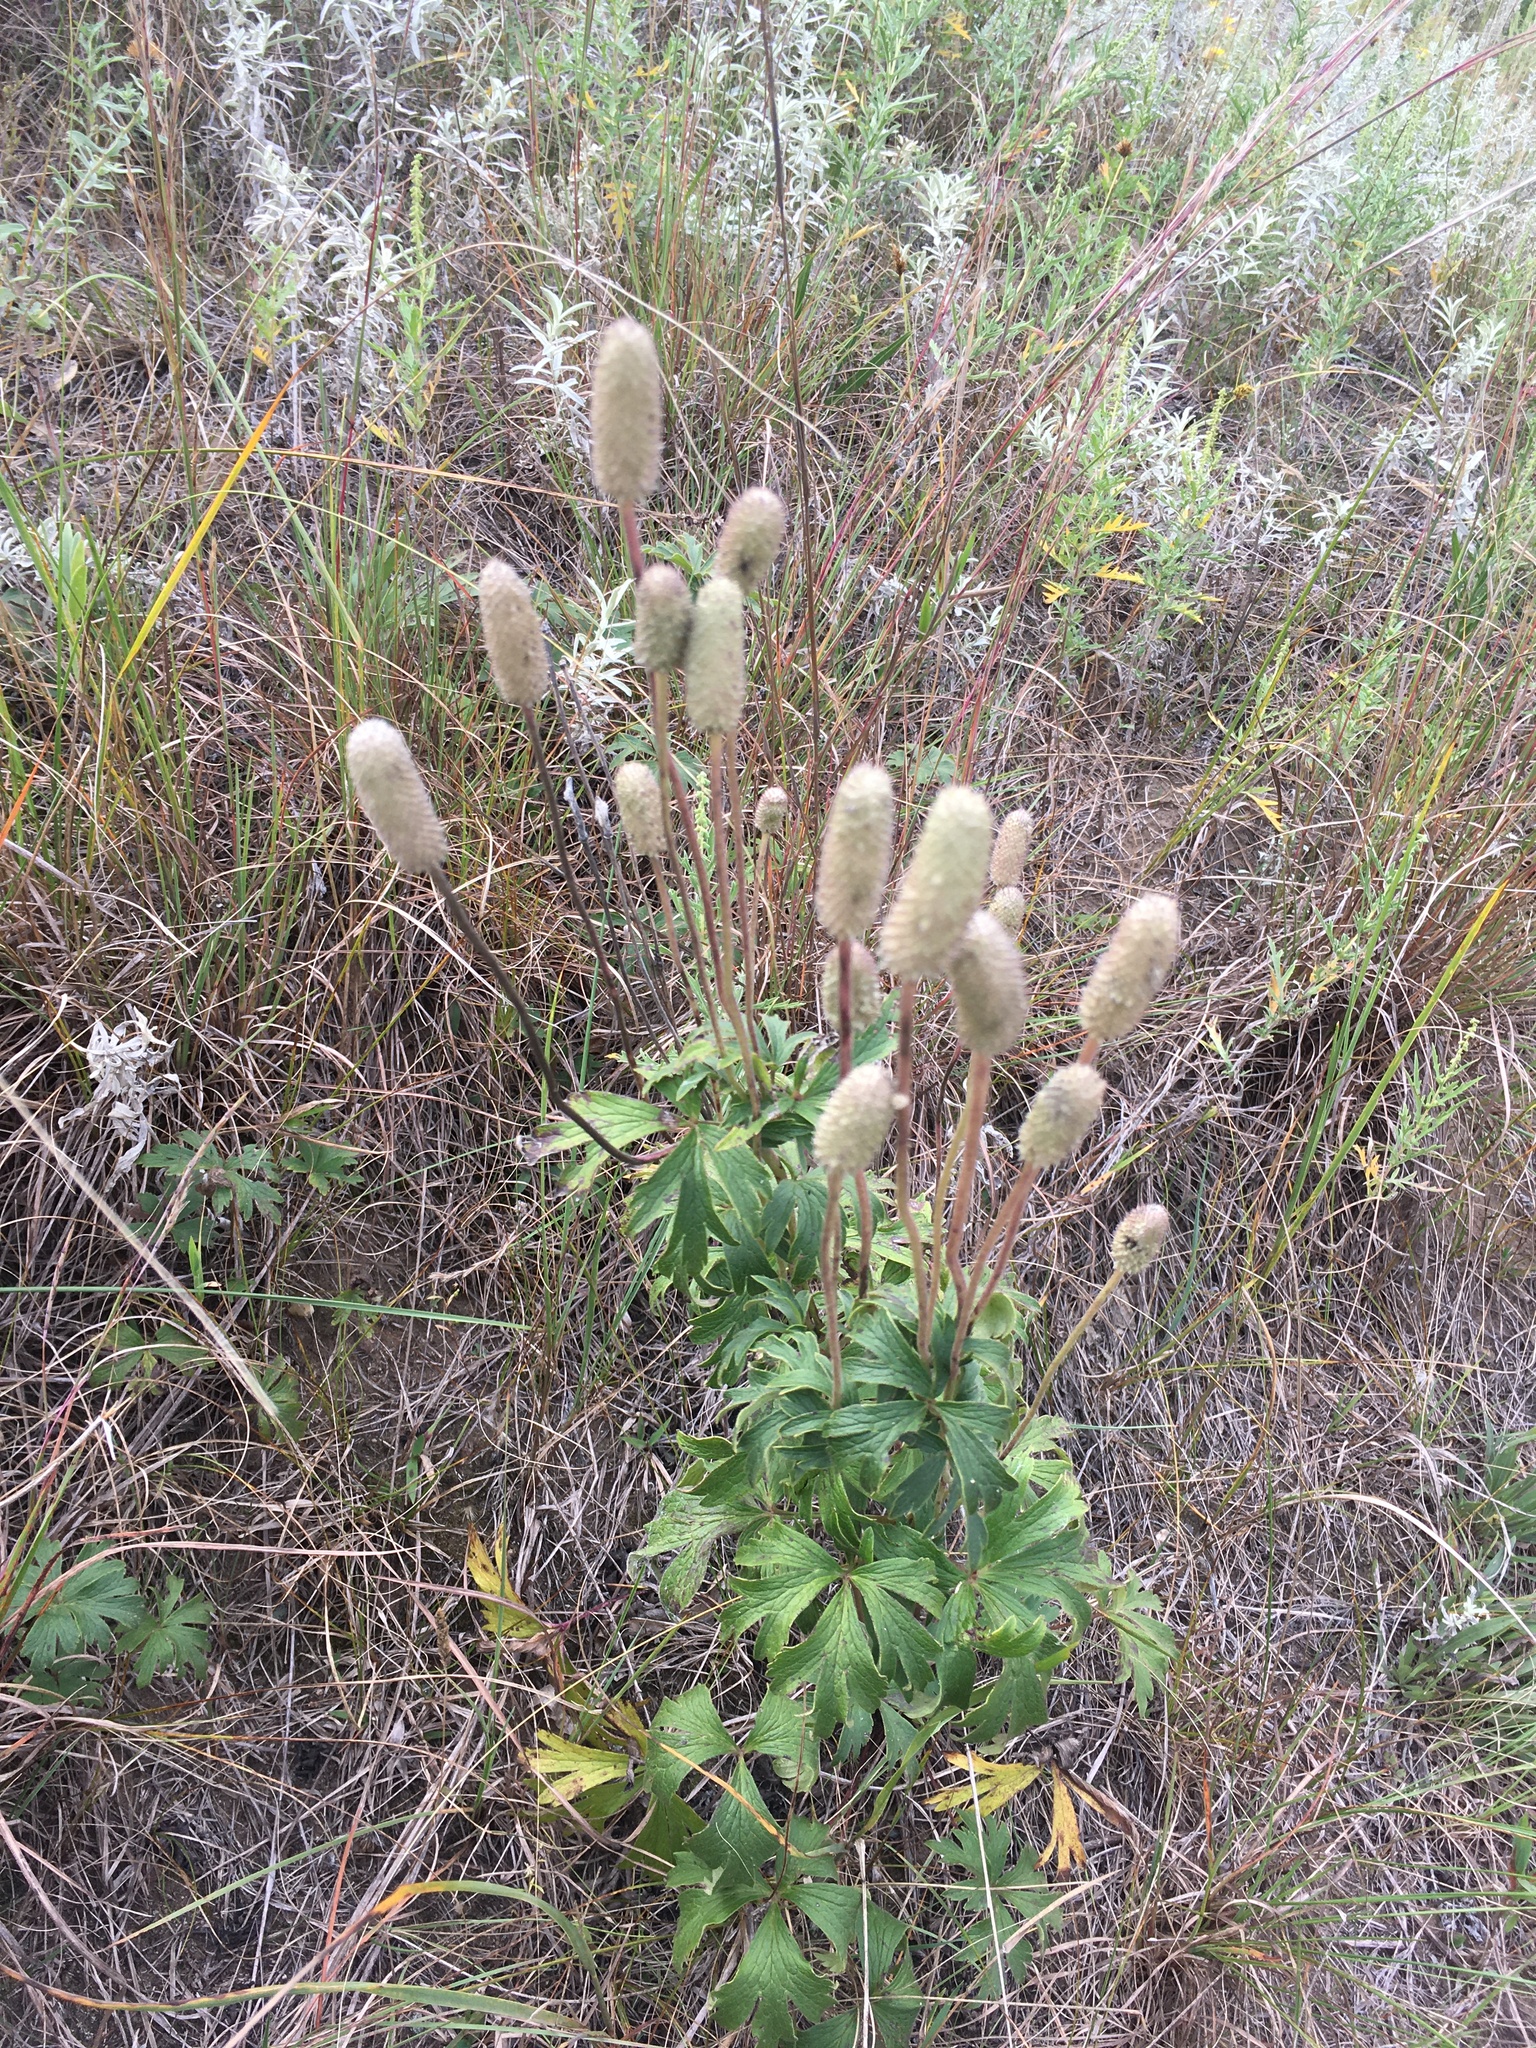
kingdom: Plantae
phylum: Tracheophyta
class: Magnoliopsida
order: Ranunculales
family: Ranunculaceae
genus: Anemone
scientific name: Anemone cylindrica
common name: Candle anemone
